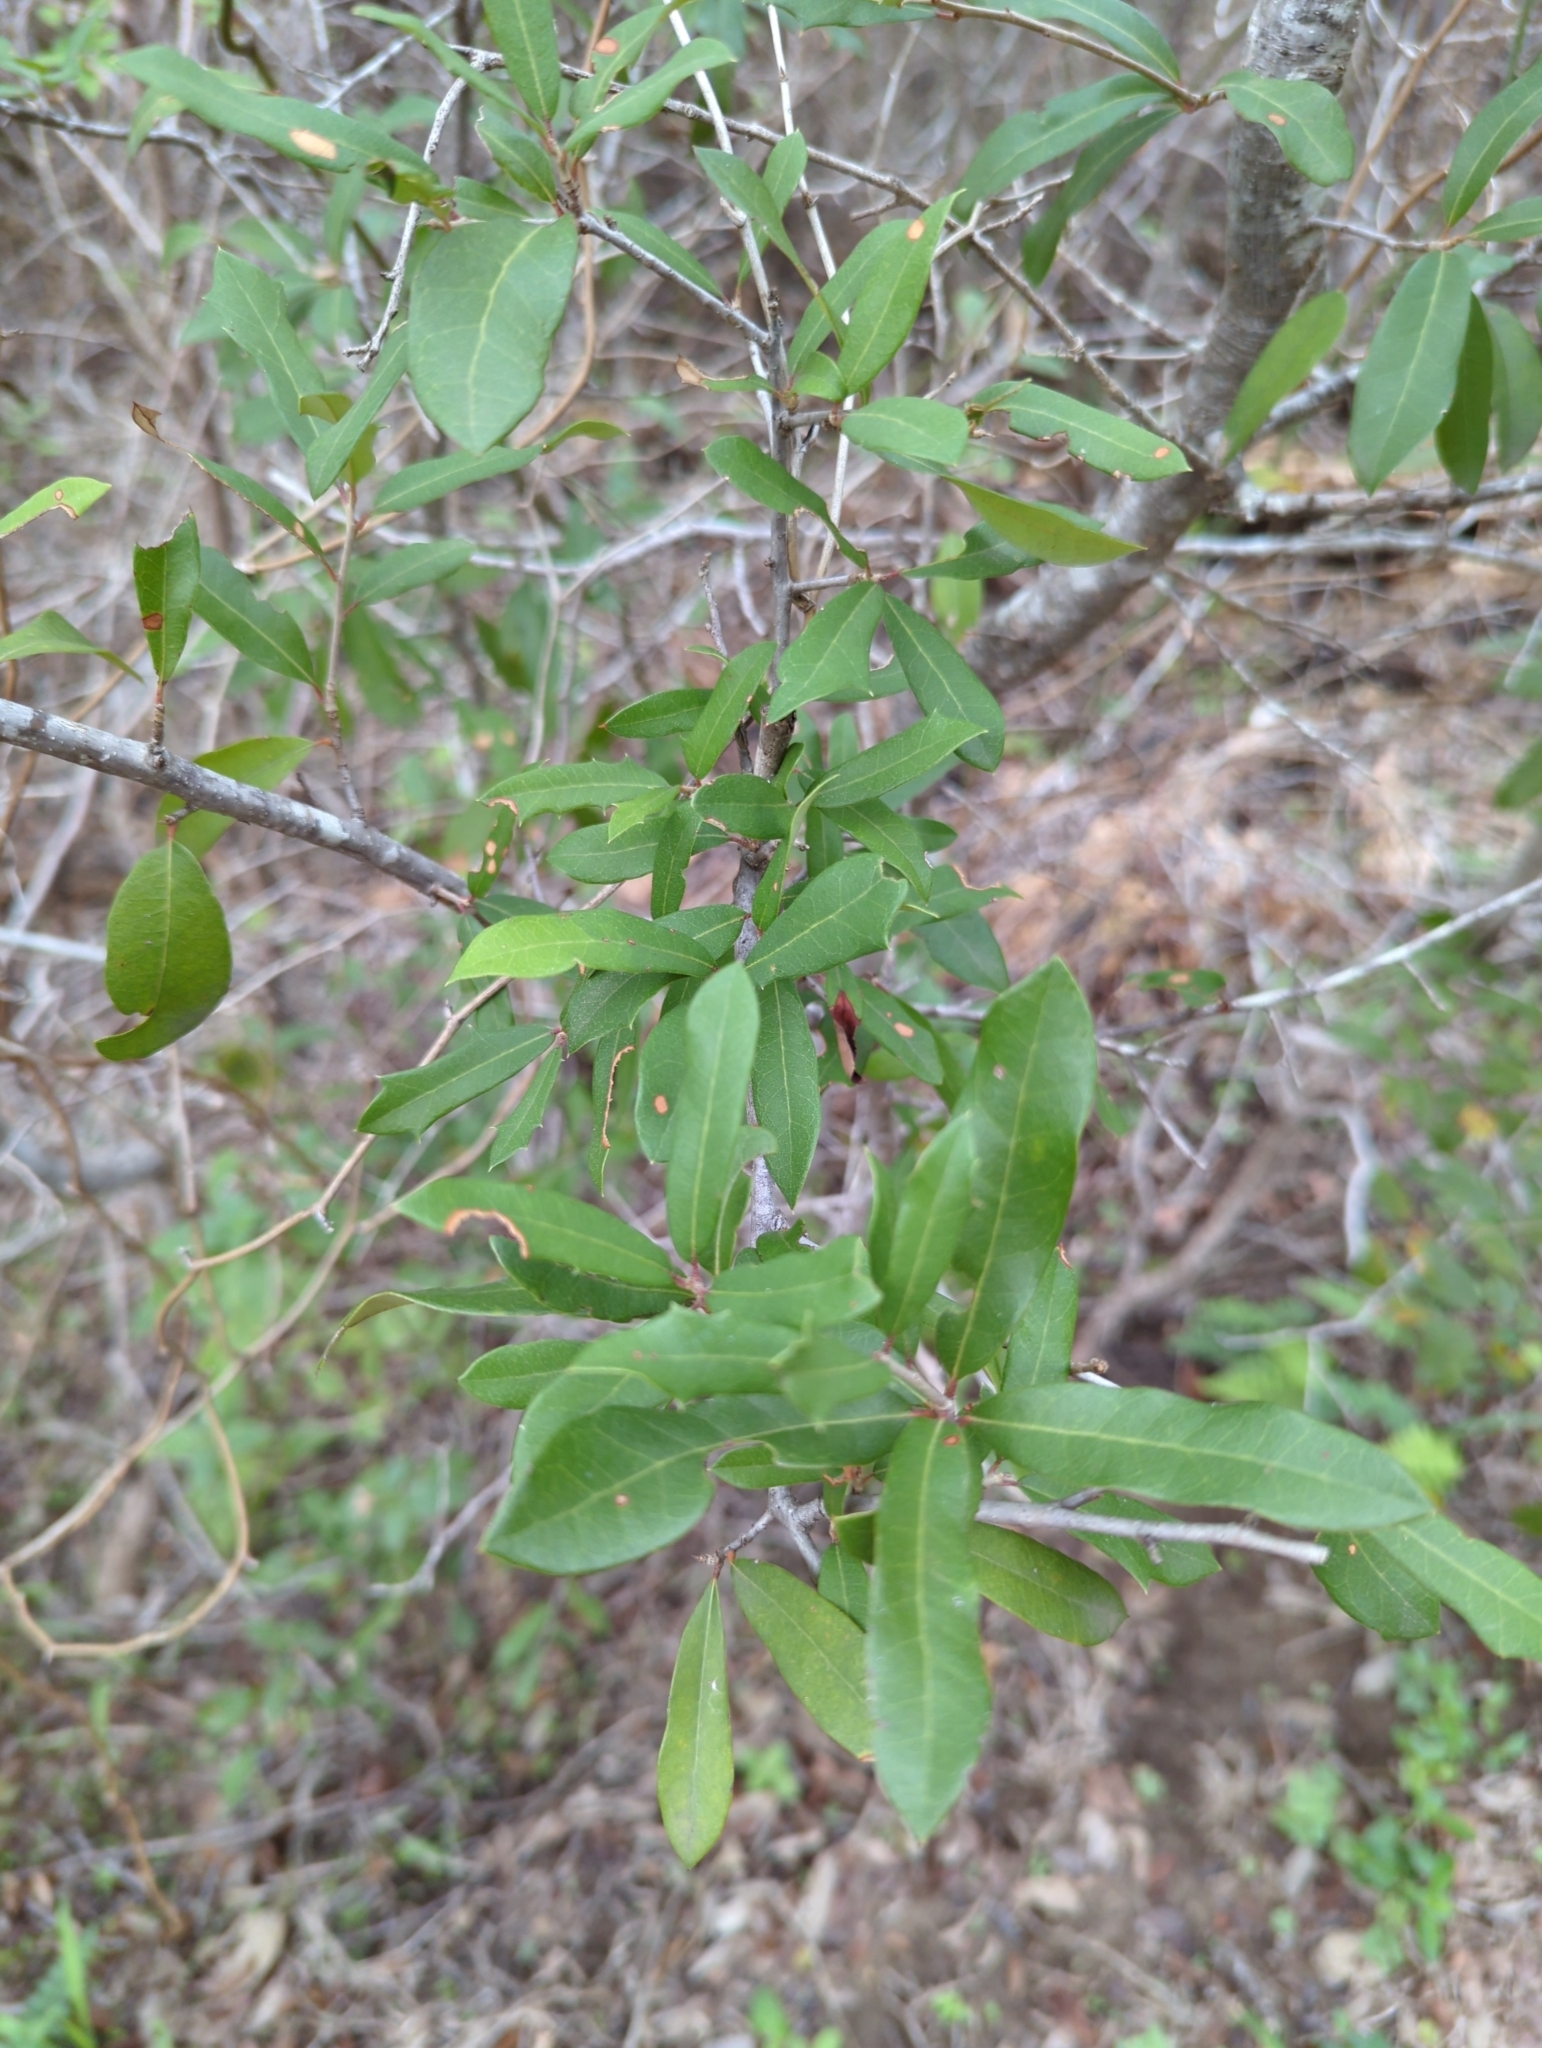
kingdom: Plantae
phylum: Tracheophyta
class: Magnoliopsida
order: Fagales
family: Fagaceae
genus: Quercus
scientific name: Quercus fusiformis
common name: Texas live oak
